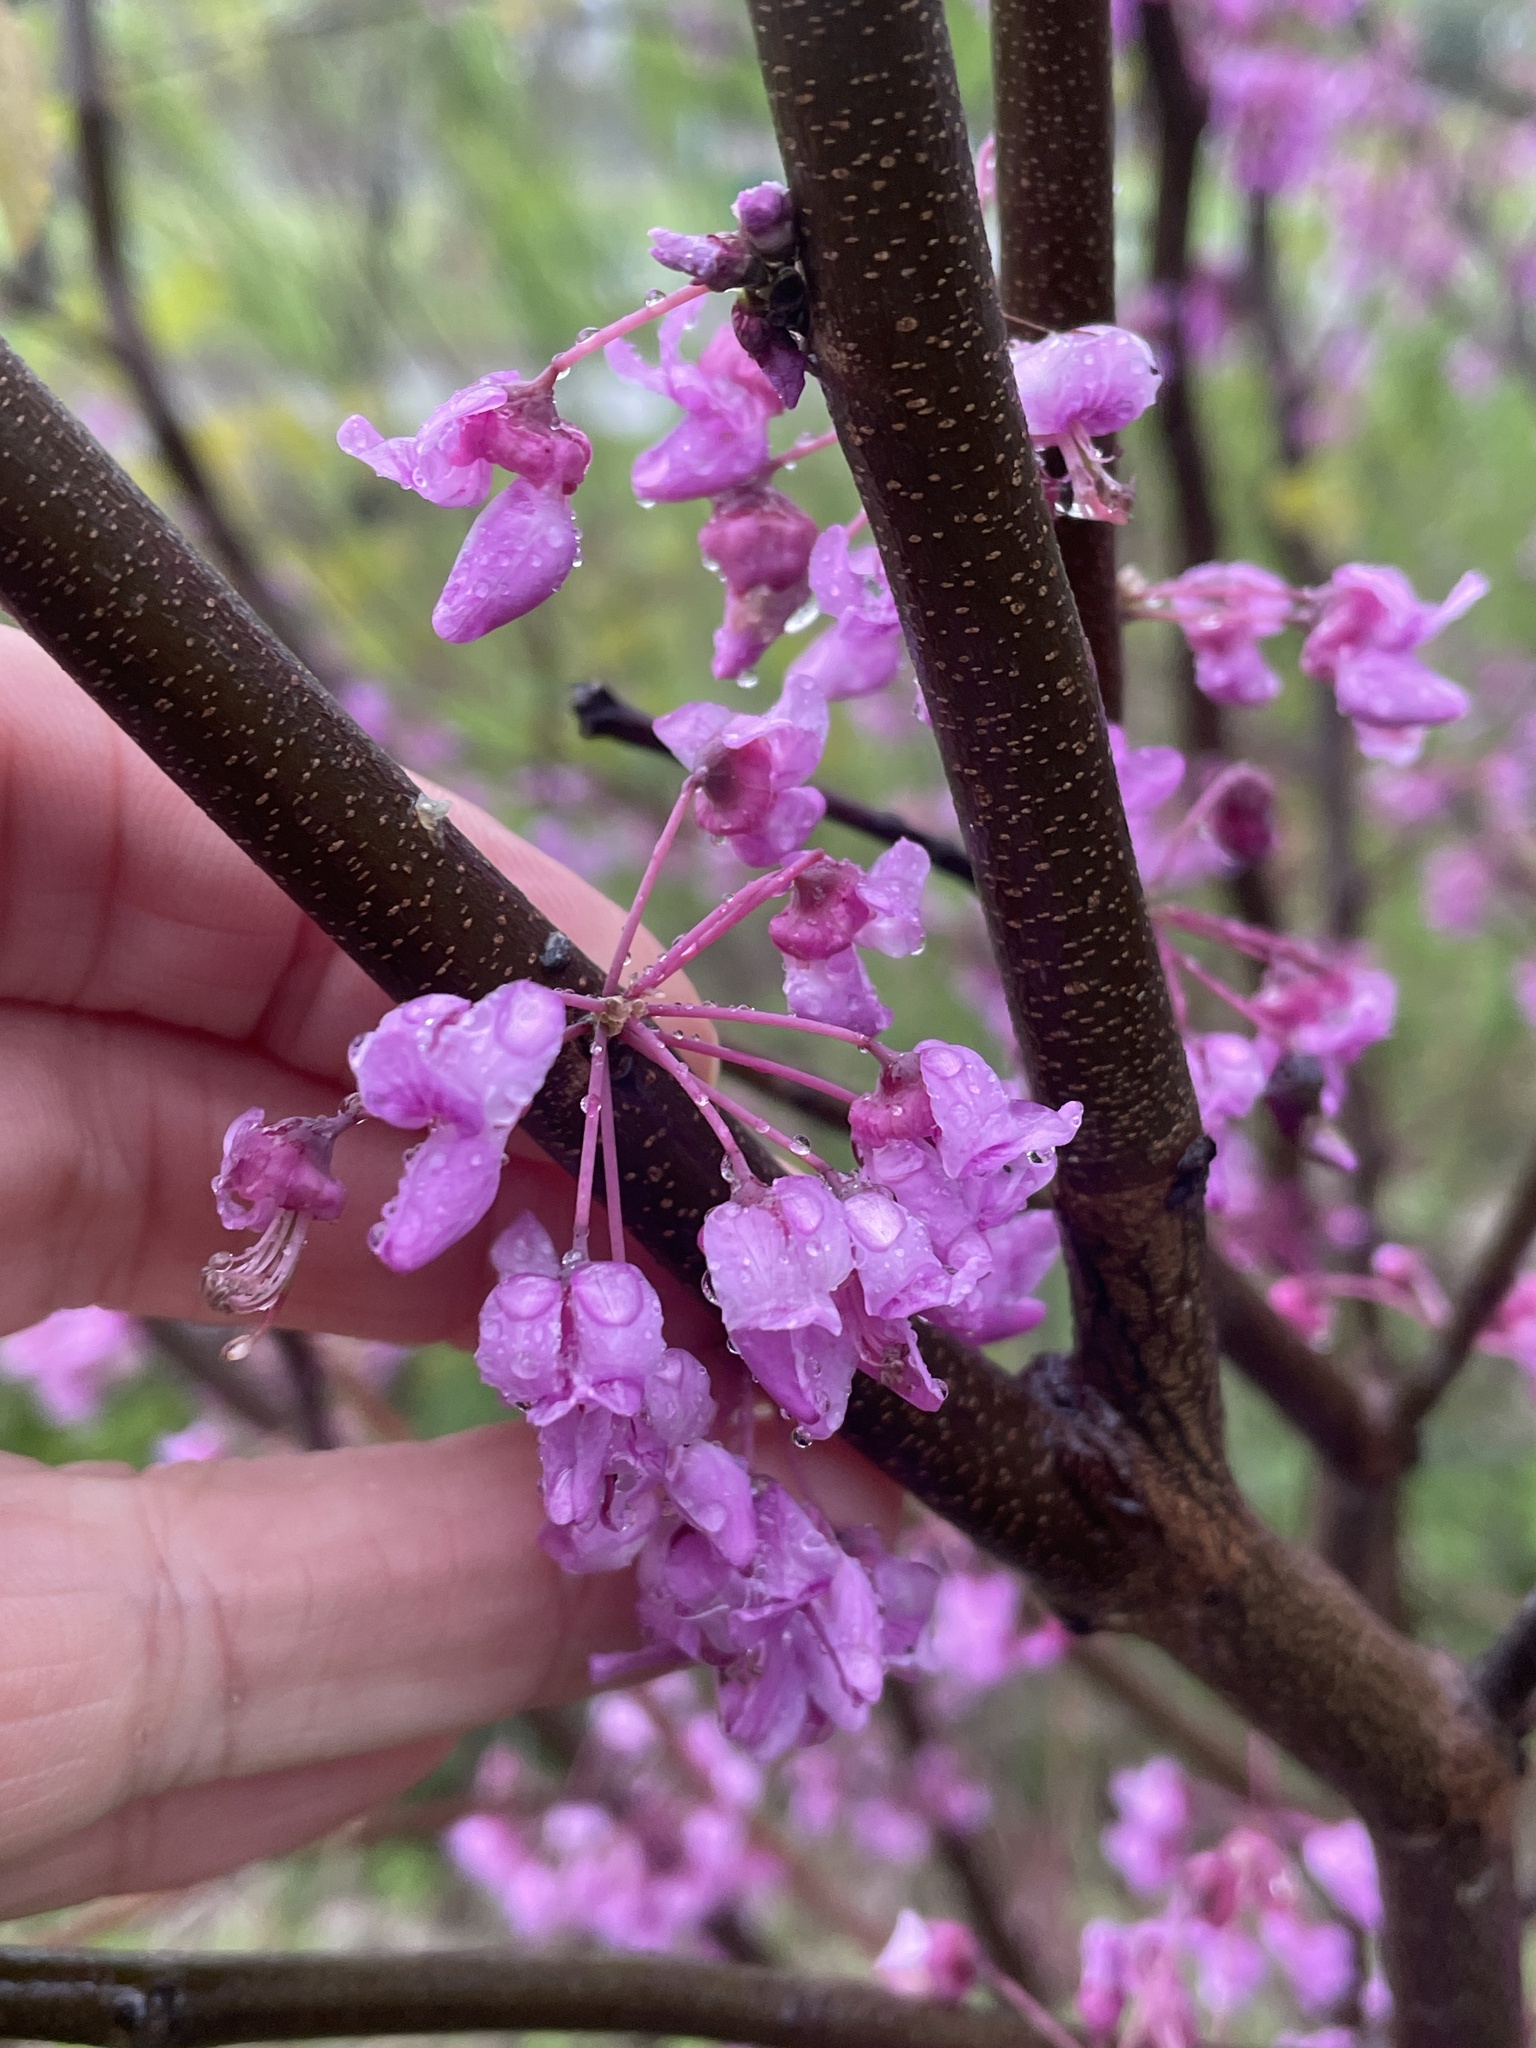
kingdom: Plantae
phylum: Tracheophyta
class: Magnoliopsida
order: Fabales
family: Fabaceae
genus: Cercis
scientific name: Cercis canadensis
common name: Eastern redbud
